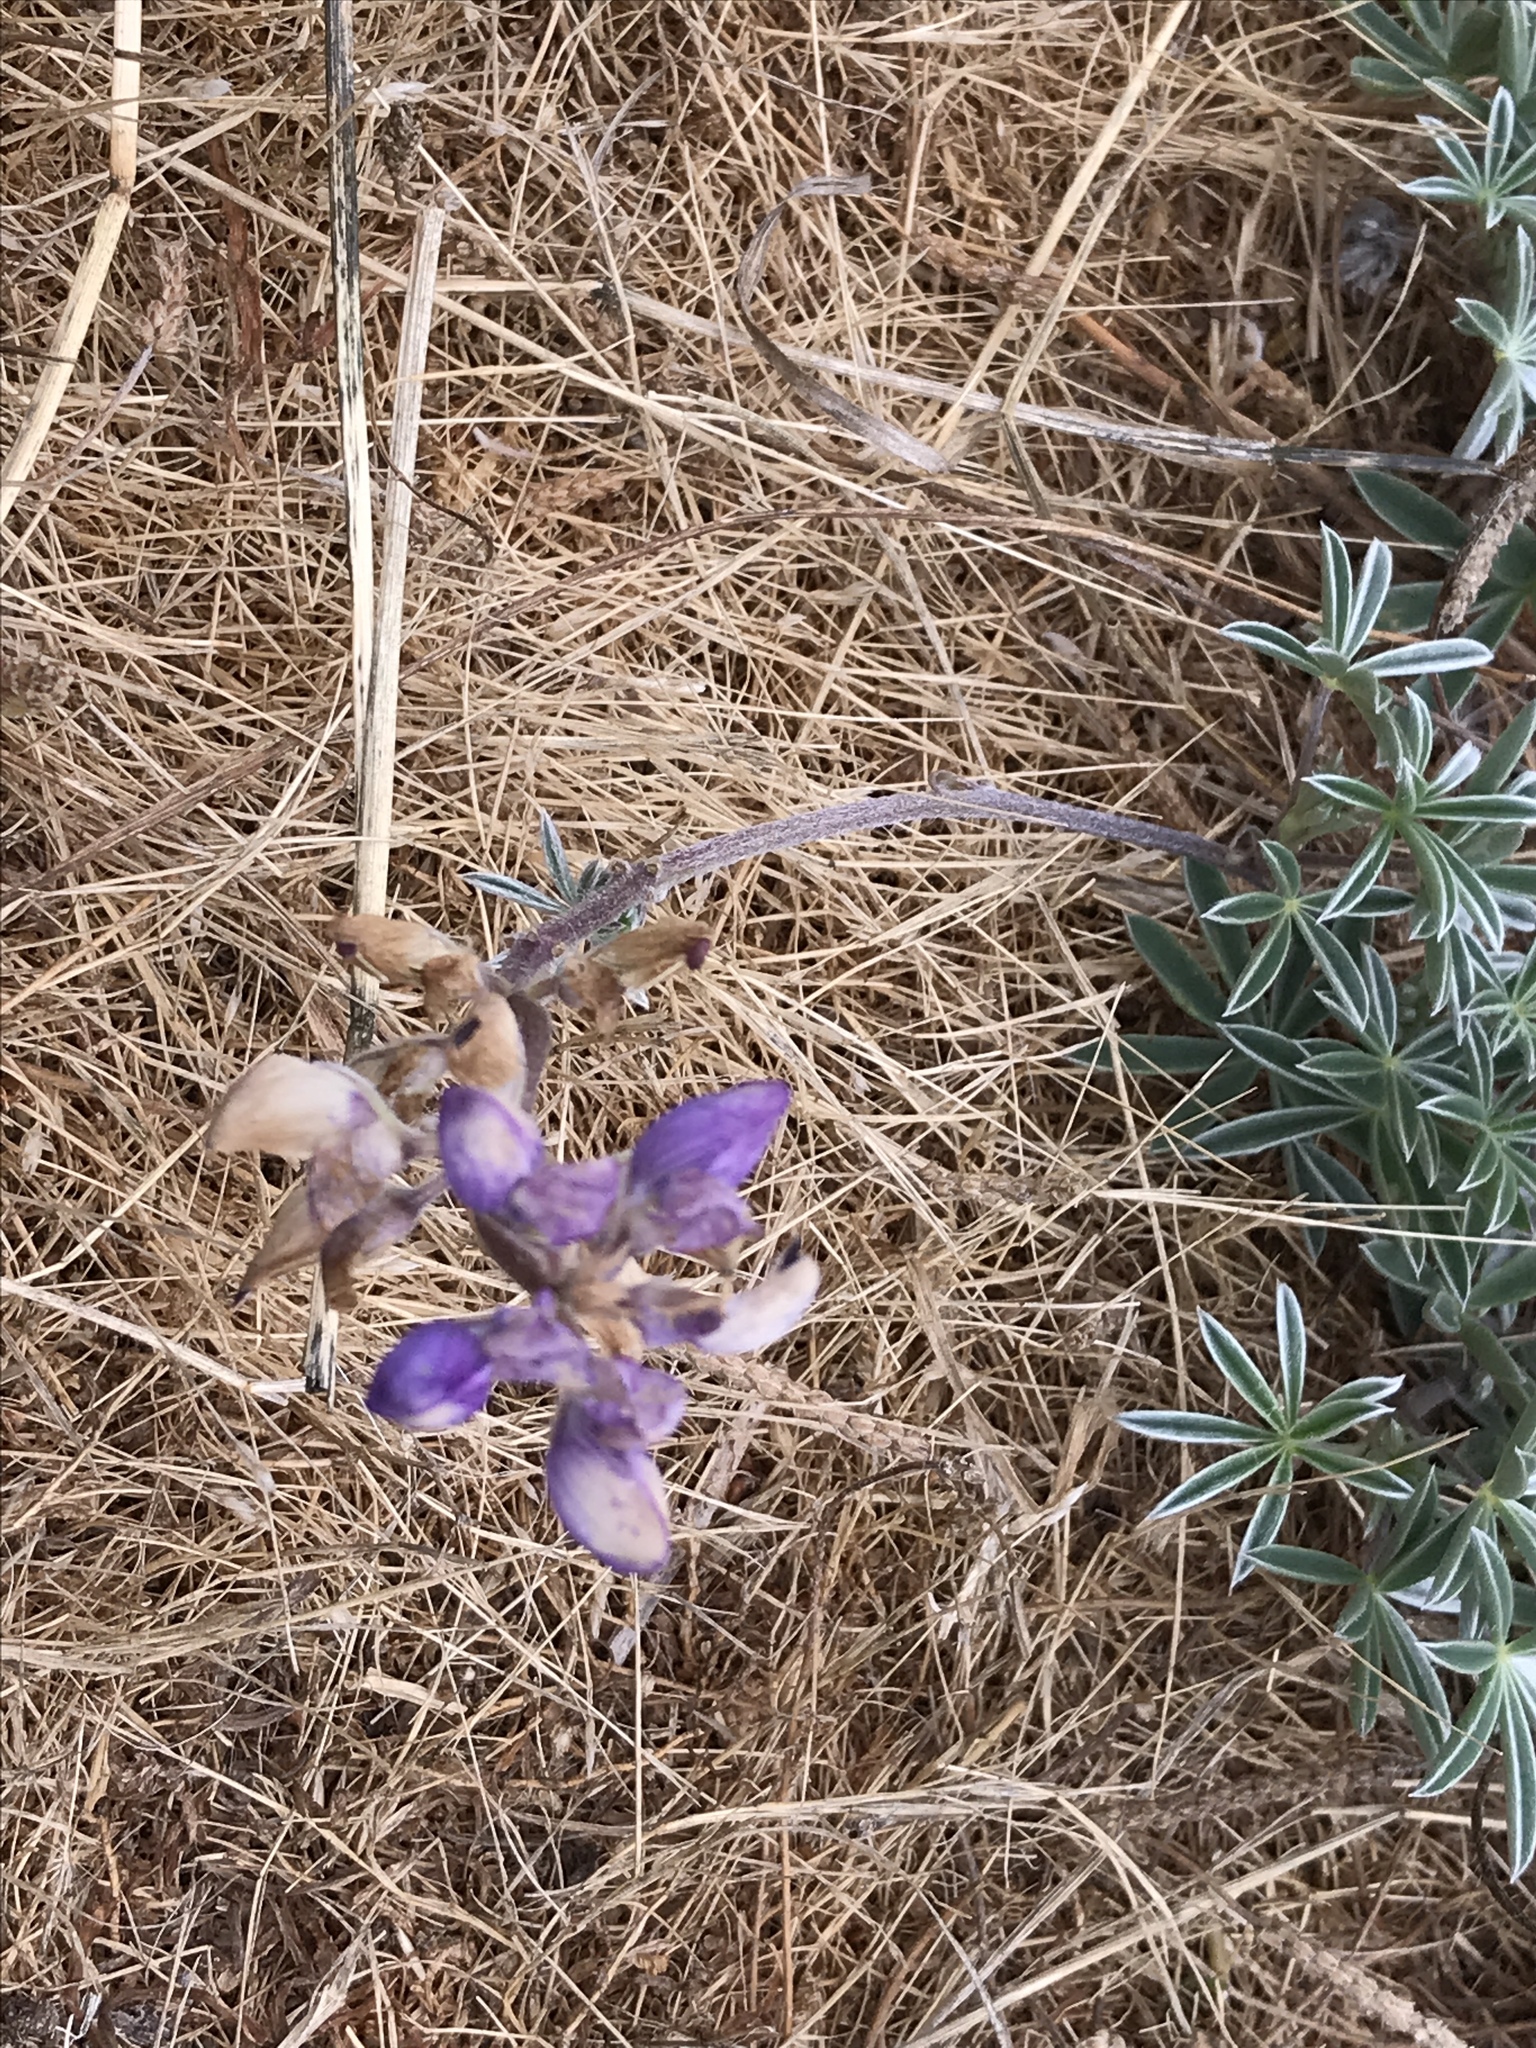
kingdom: Plantae
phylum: Tracheophyta
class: Magnoliopsida
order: Fabales
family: Fabaceae
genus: Lupinus
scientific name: Lupinus littoralis
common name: Seashore lupine
